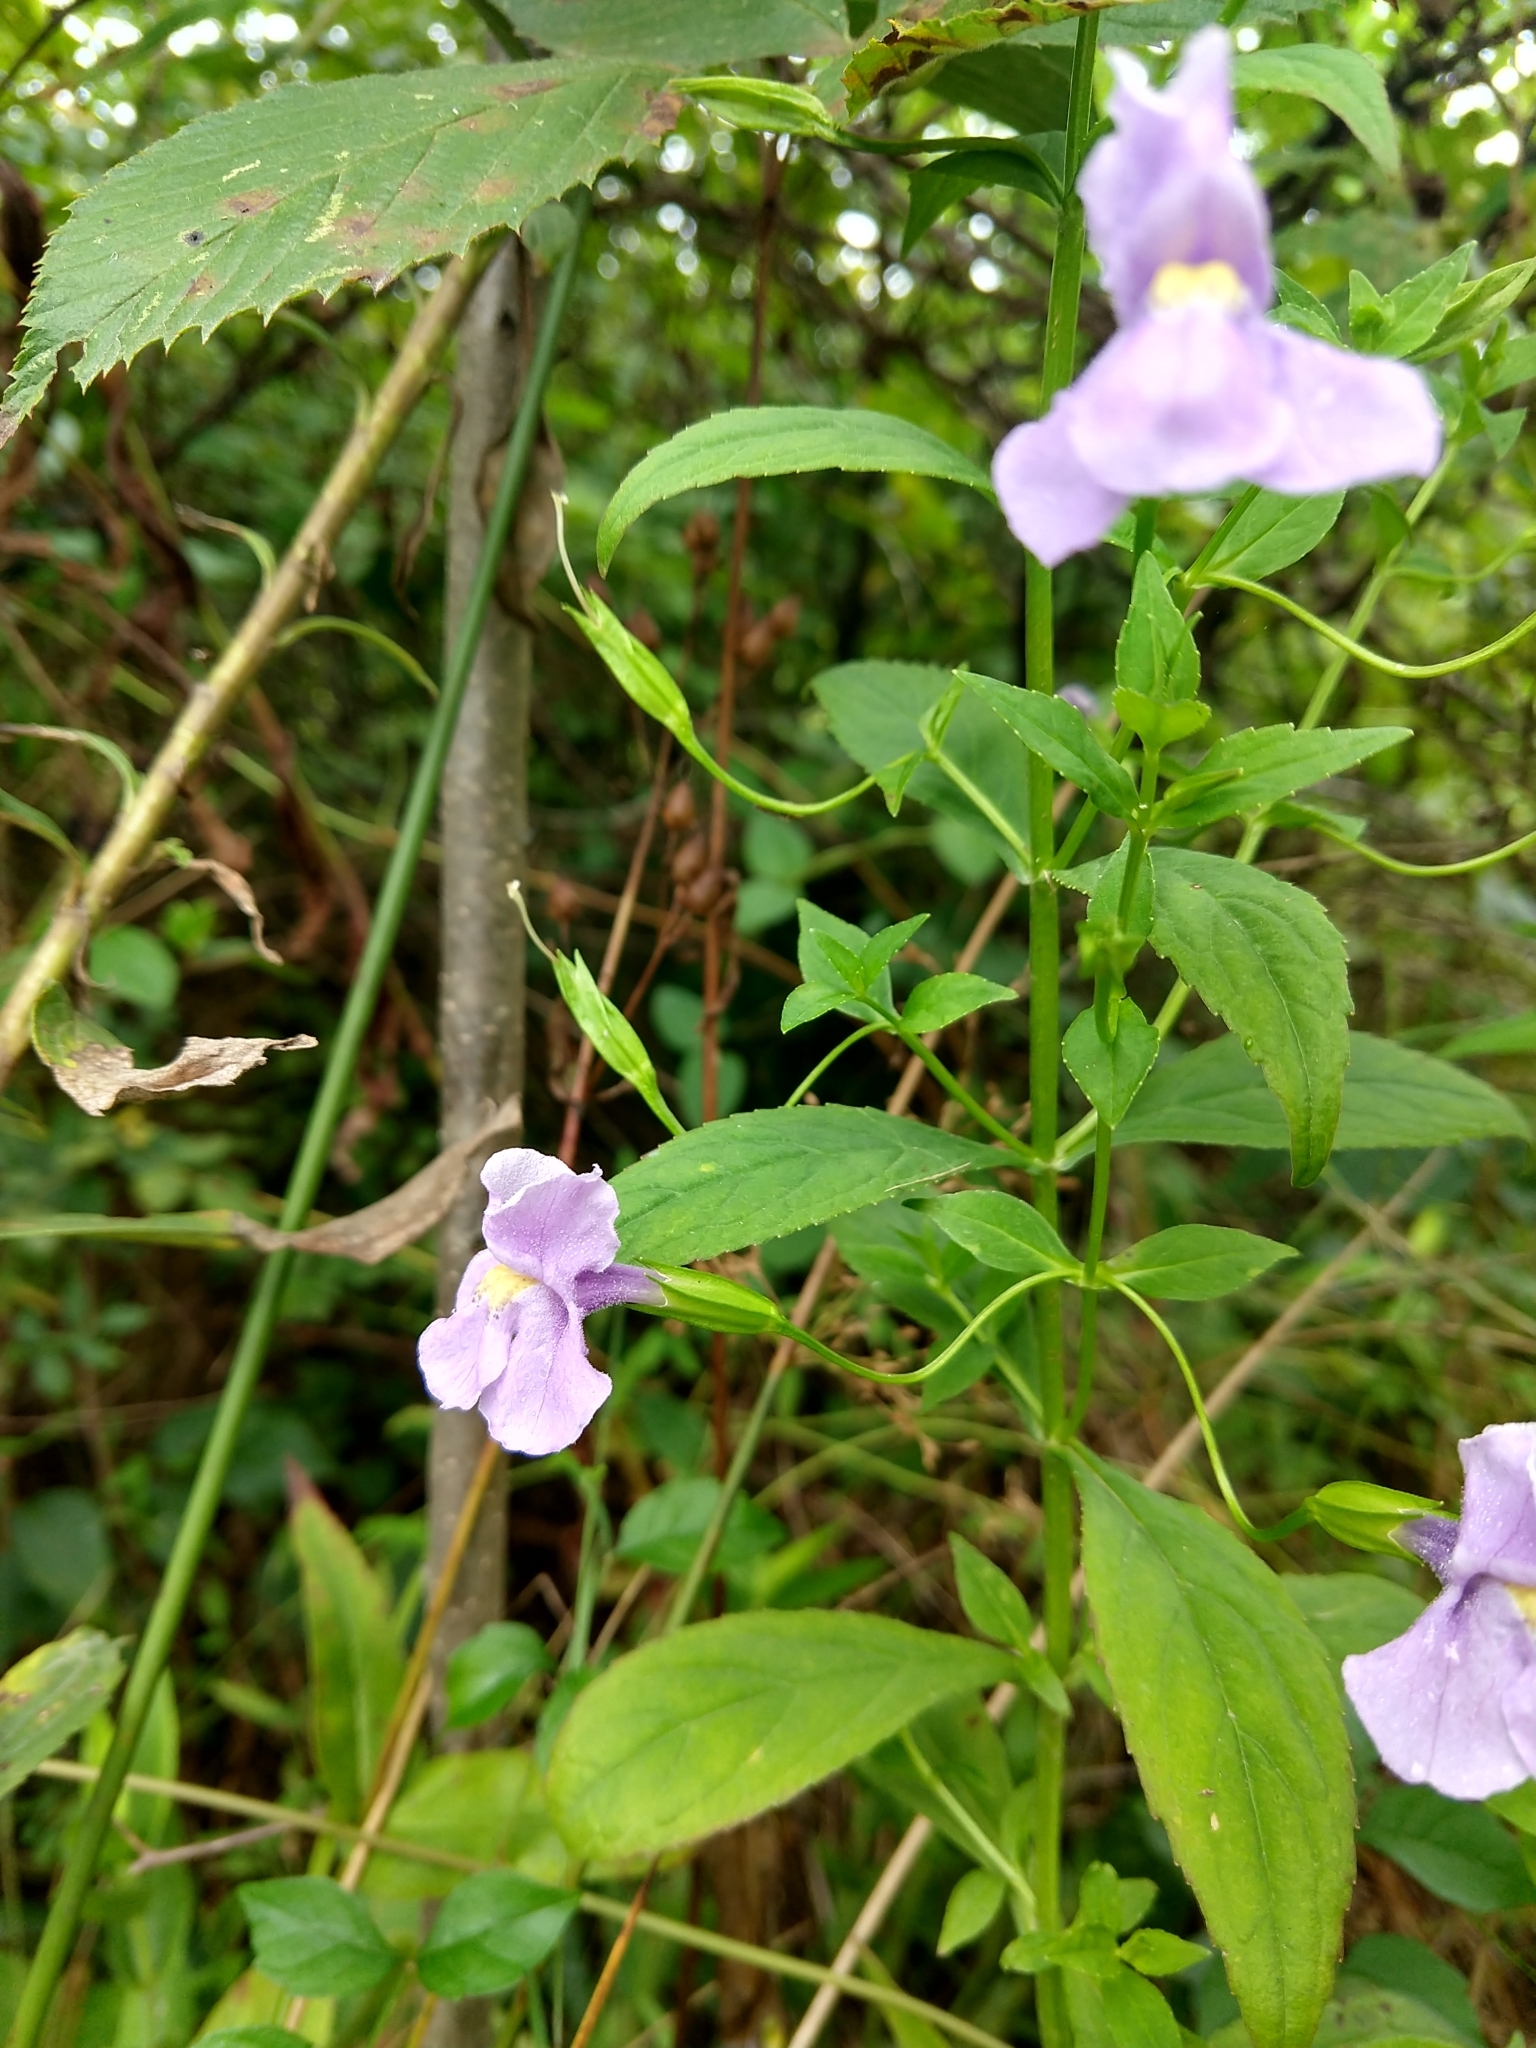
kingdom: Plantae
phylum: Tracheophyta
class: Magnoliopsida
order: Lamiales
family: Phrymaceae
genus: Mimulus
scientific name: Mimulus
